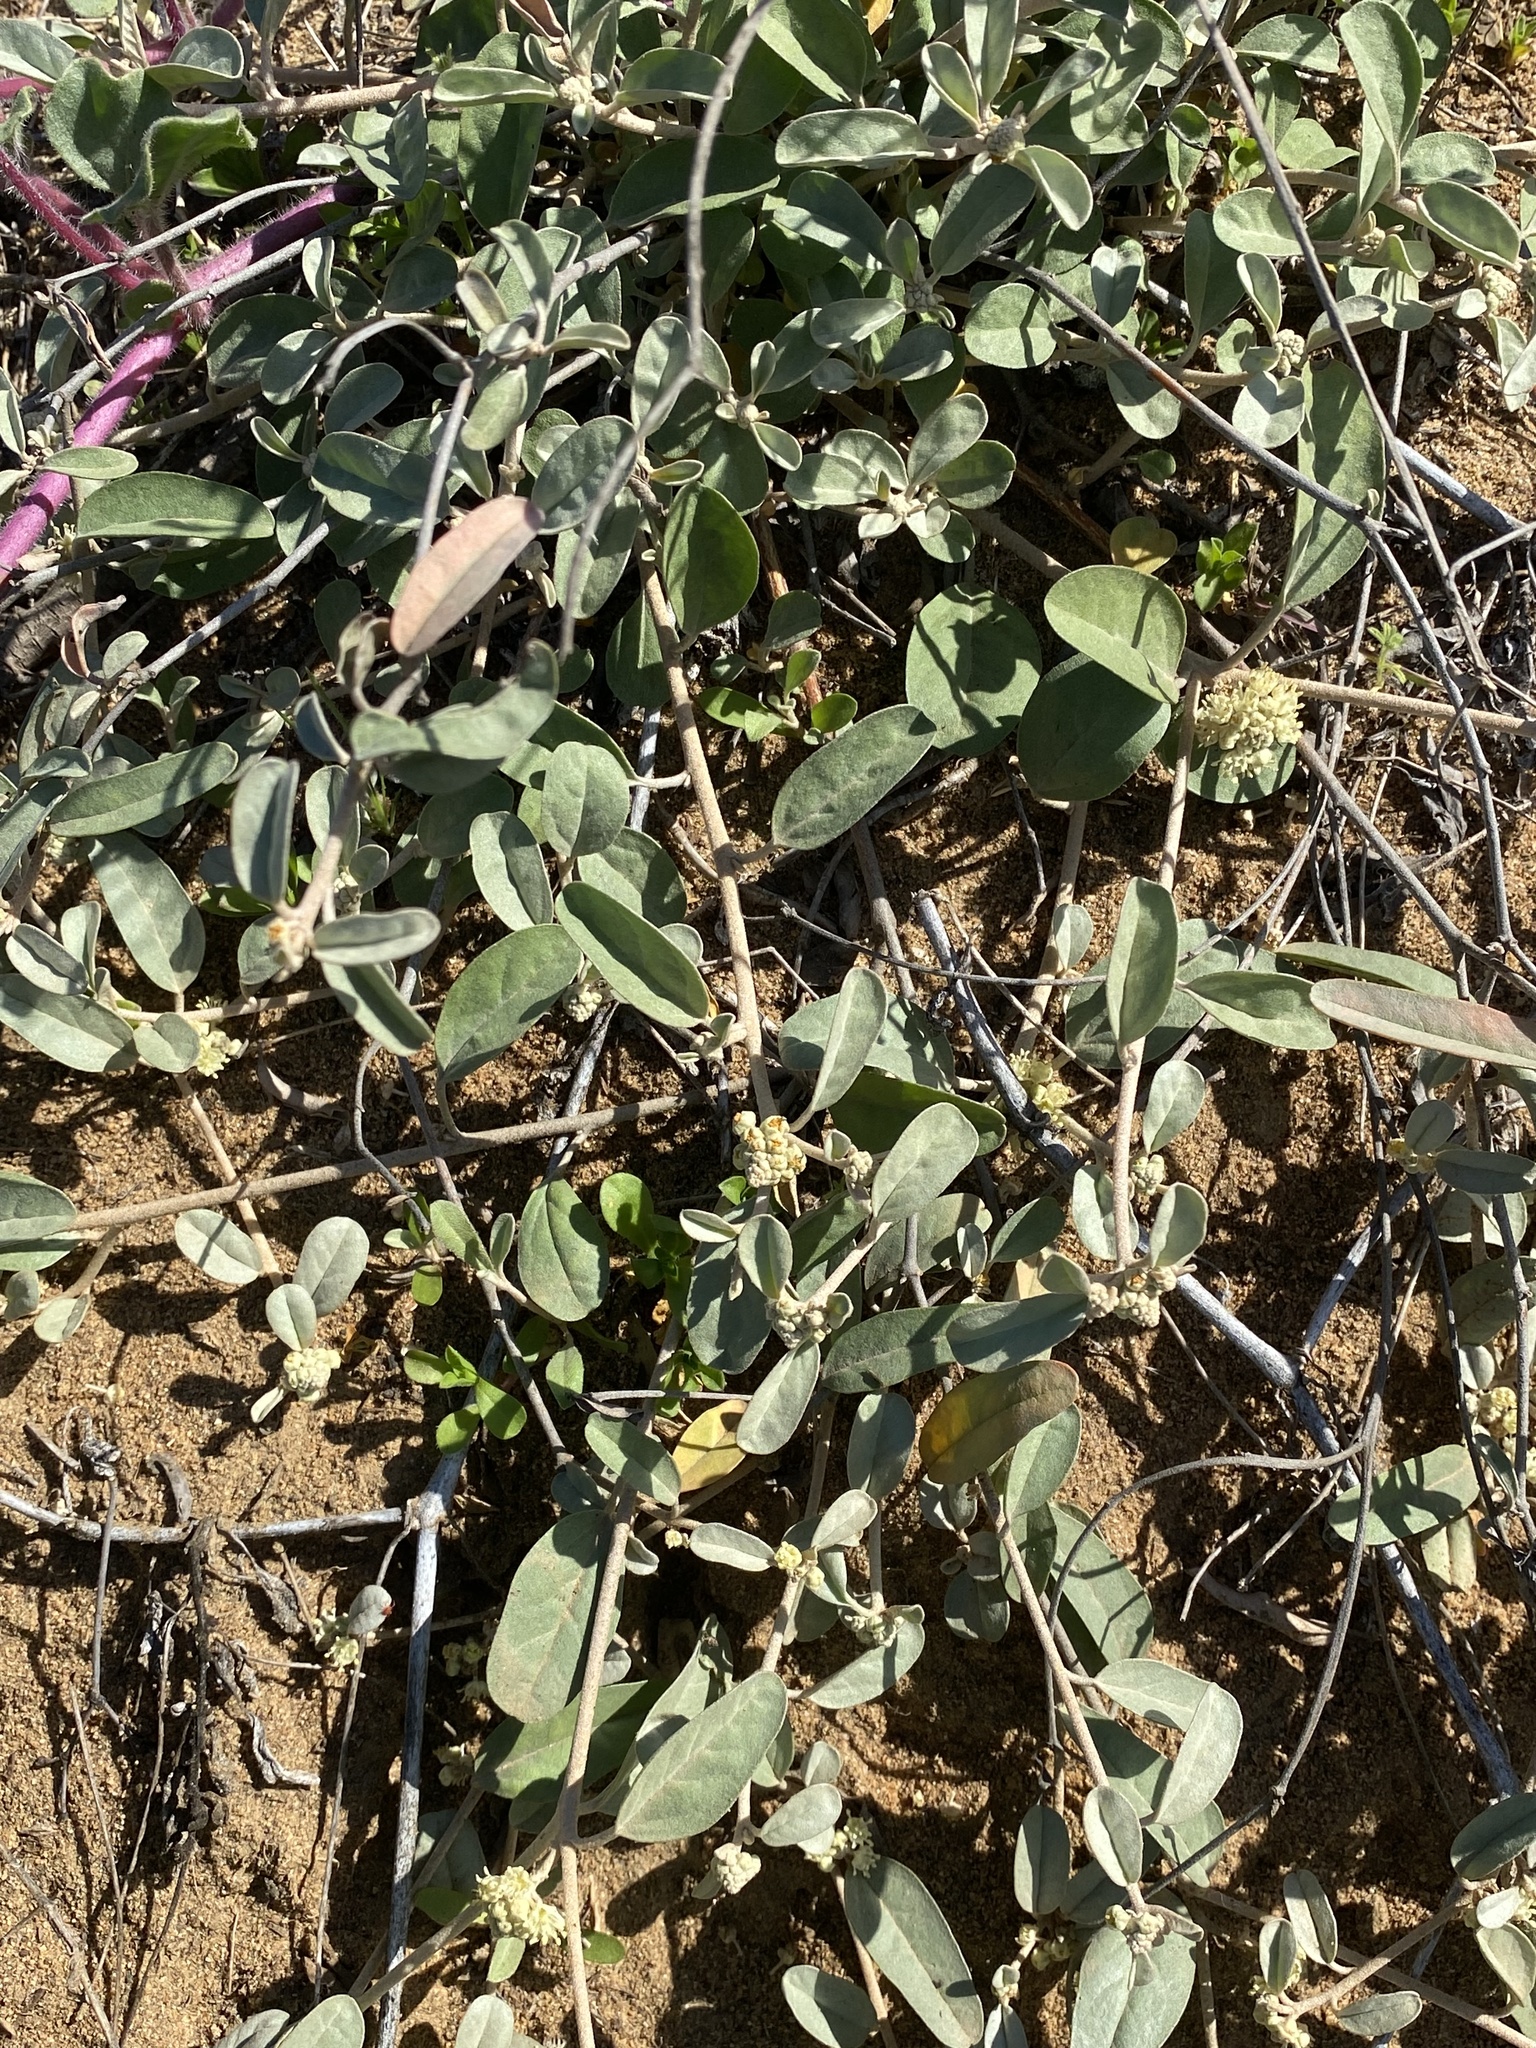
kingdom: Plantae
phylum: Tracheophyta
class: Magnoliopsida
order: Malpighiales
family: Euphorbiaceae
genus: Croton
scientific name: Croton californicus
